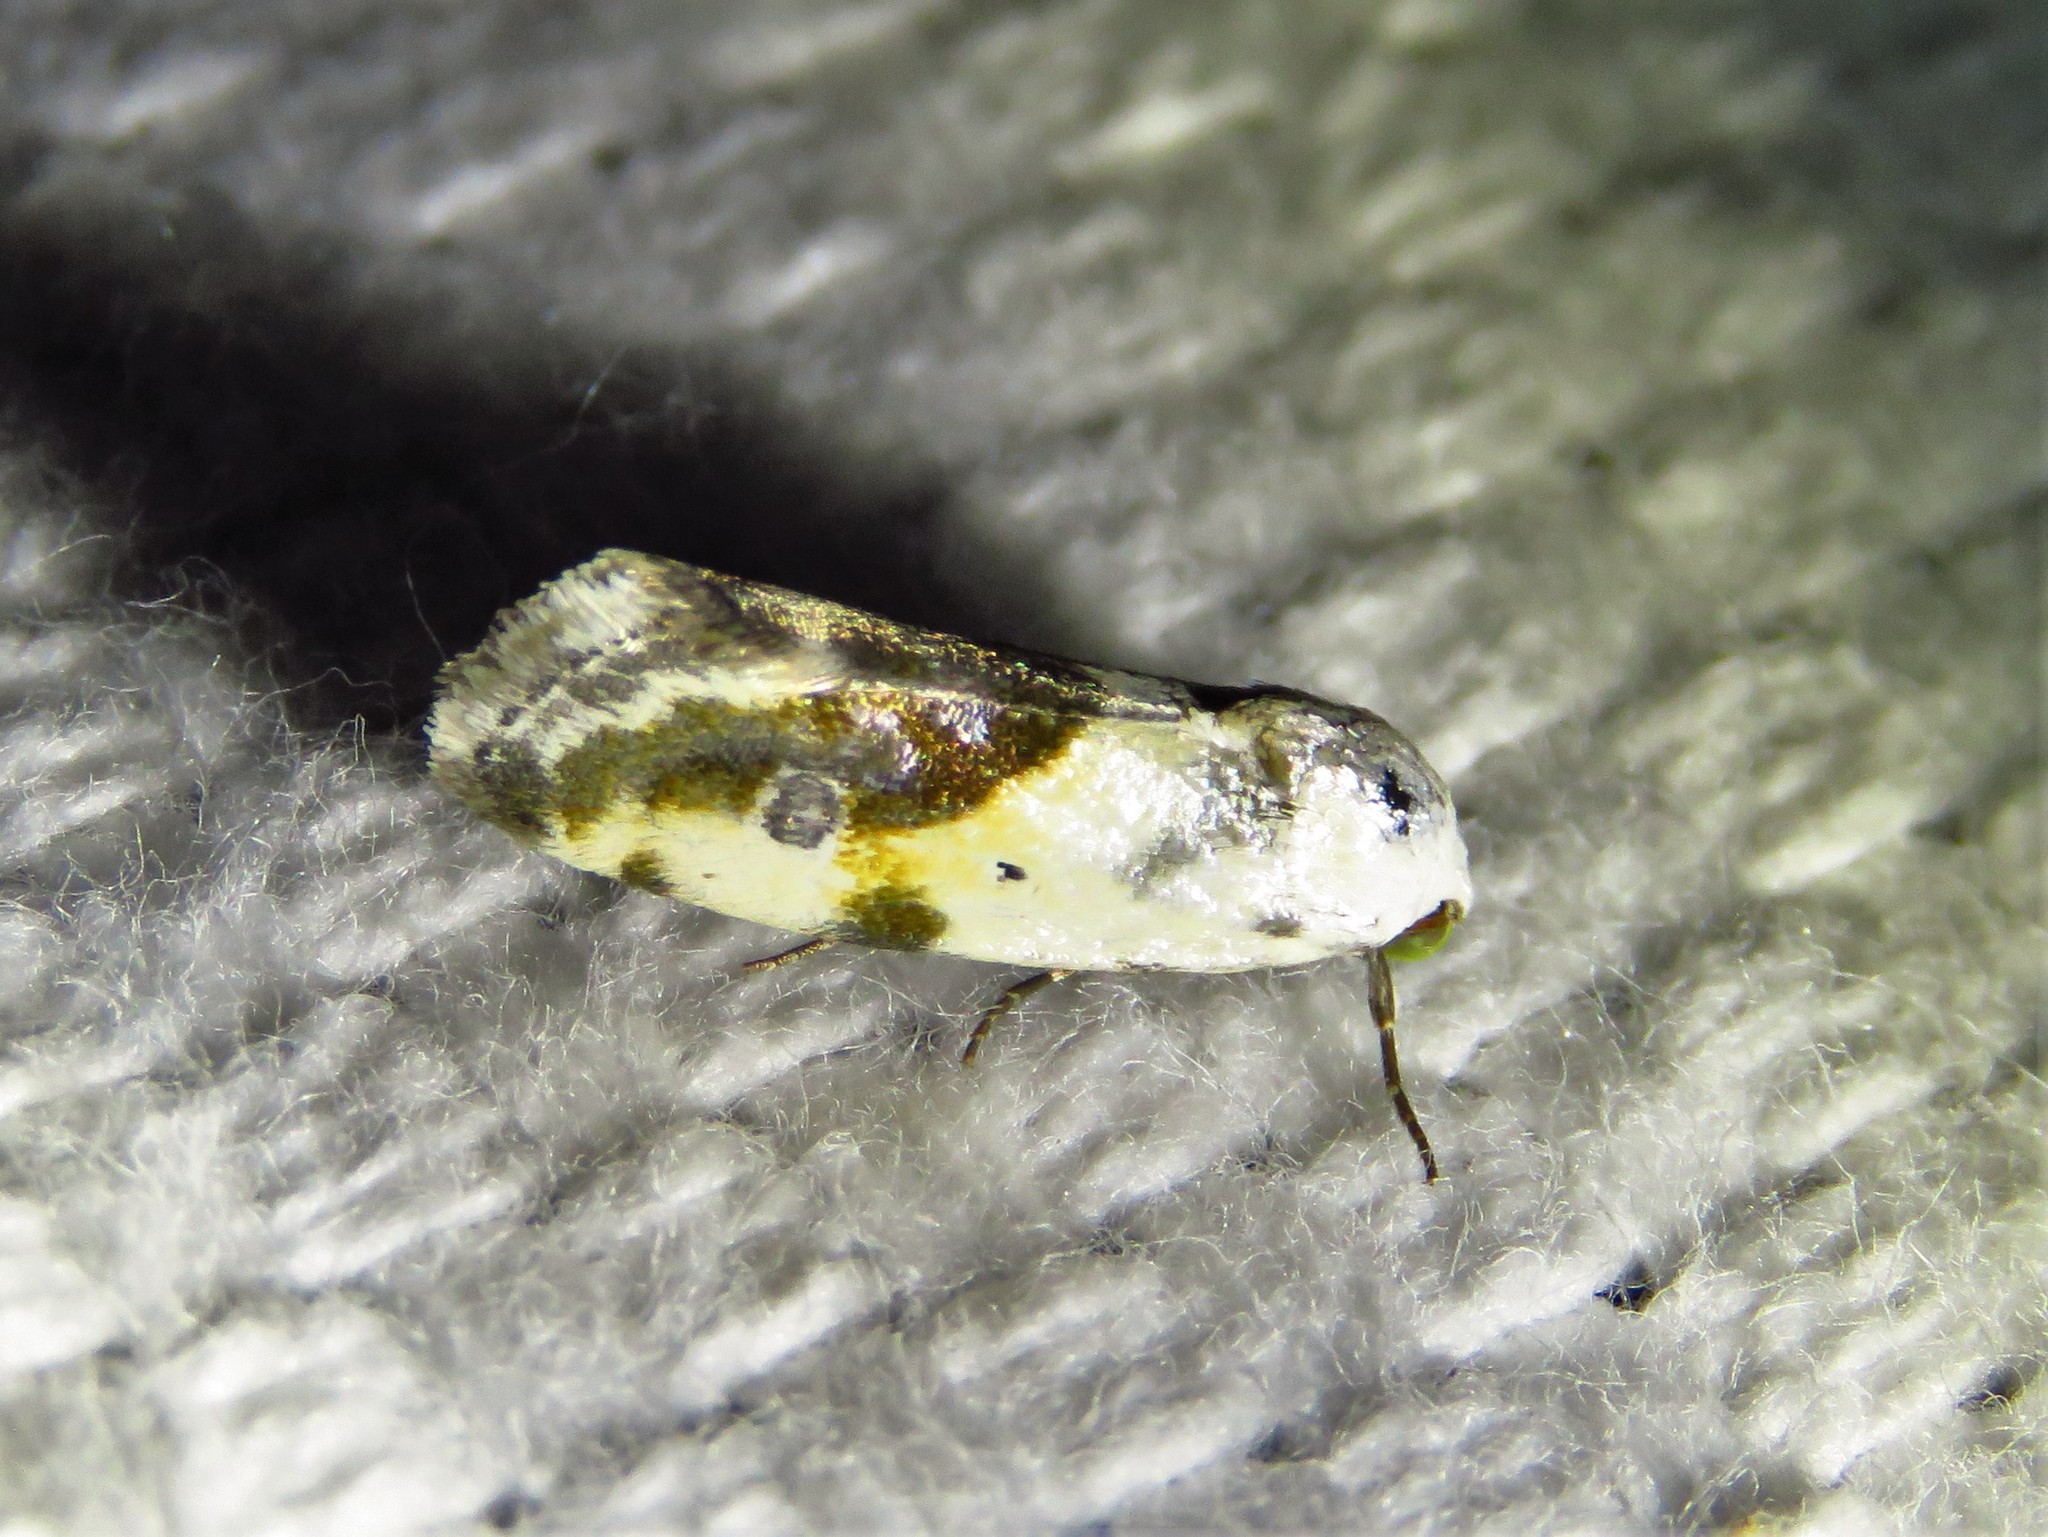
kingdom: Animalia
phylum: Arthropoda
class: Insecta
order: Lepidoptera
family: Noctuidae
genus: Acontia
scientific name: Acontia candefacta
